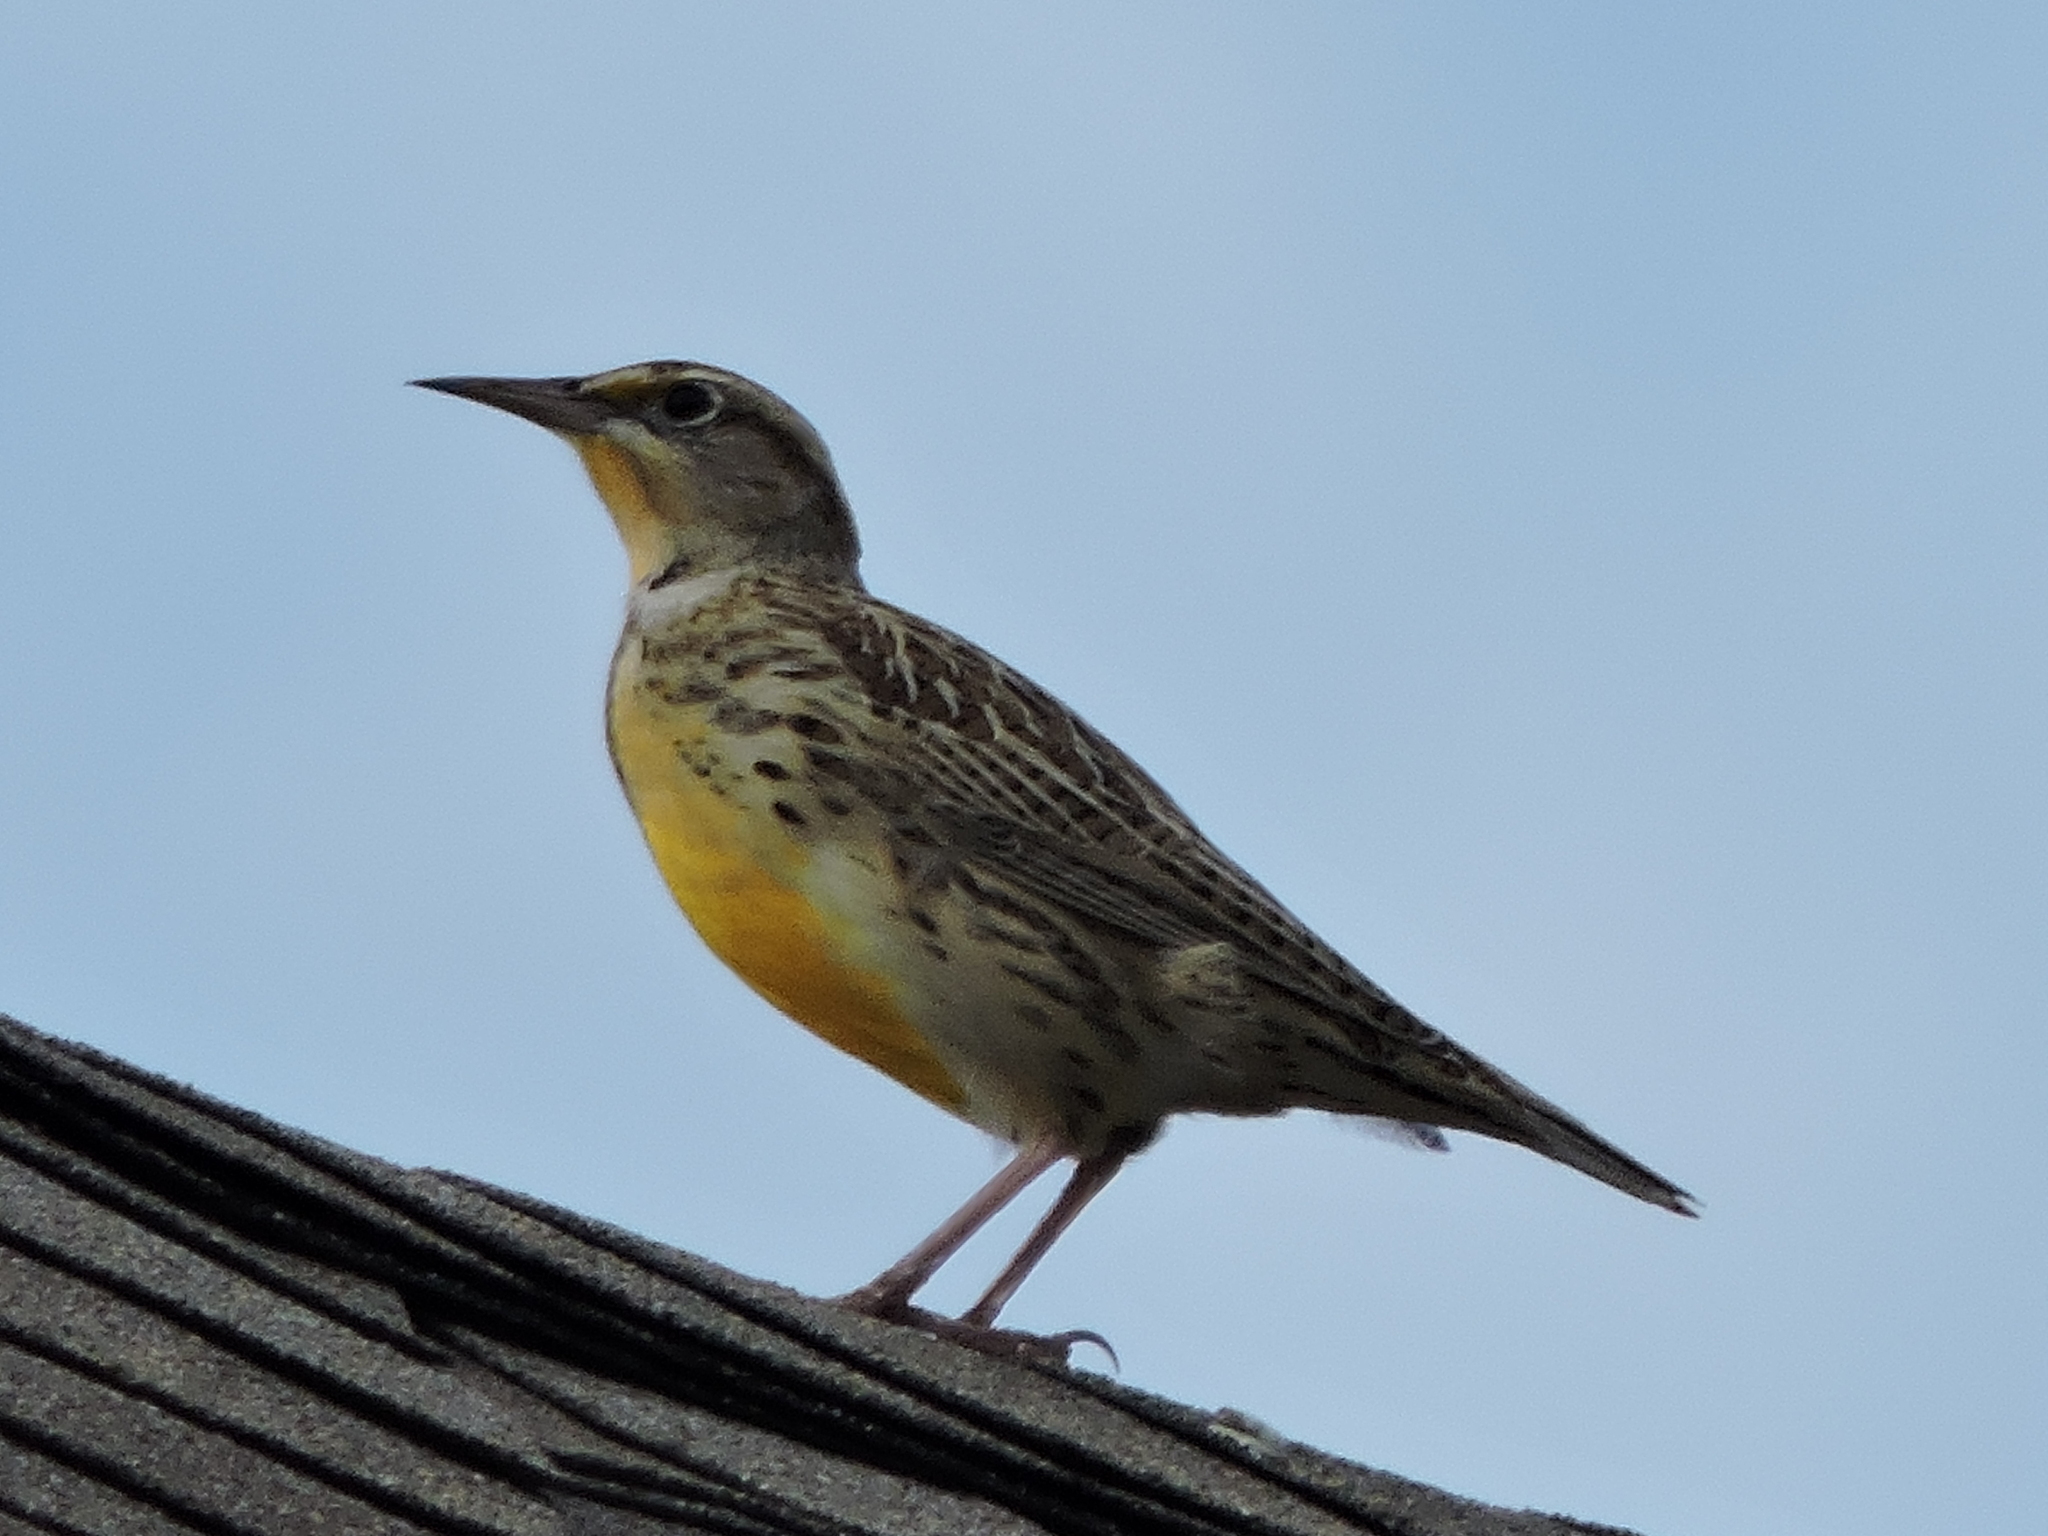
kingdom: Animalia
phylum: Chordata
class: Aves
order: Passeriformes
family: Icteridae
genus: Sturnella
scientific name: Sturnella neglecta
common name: Western meadowlark
